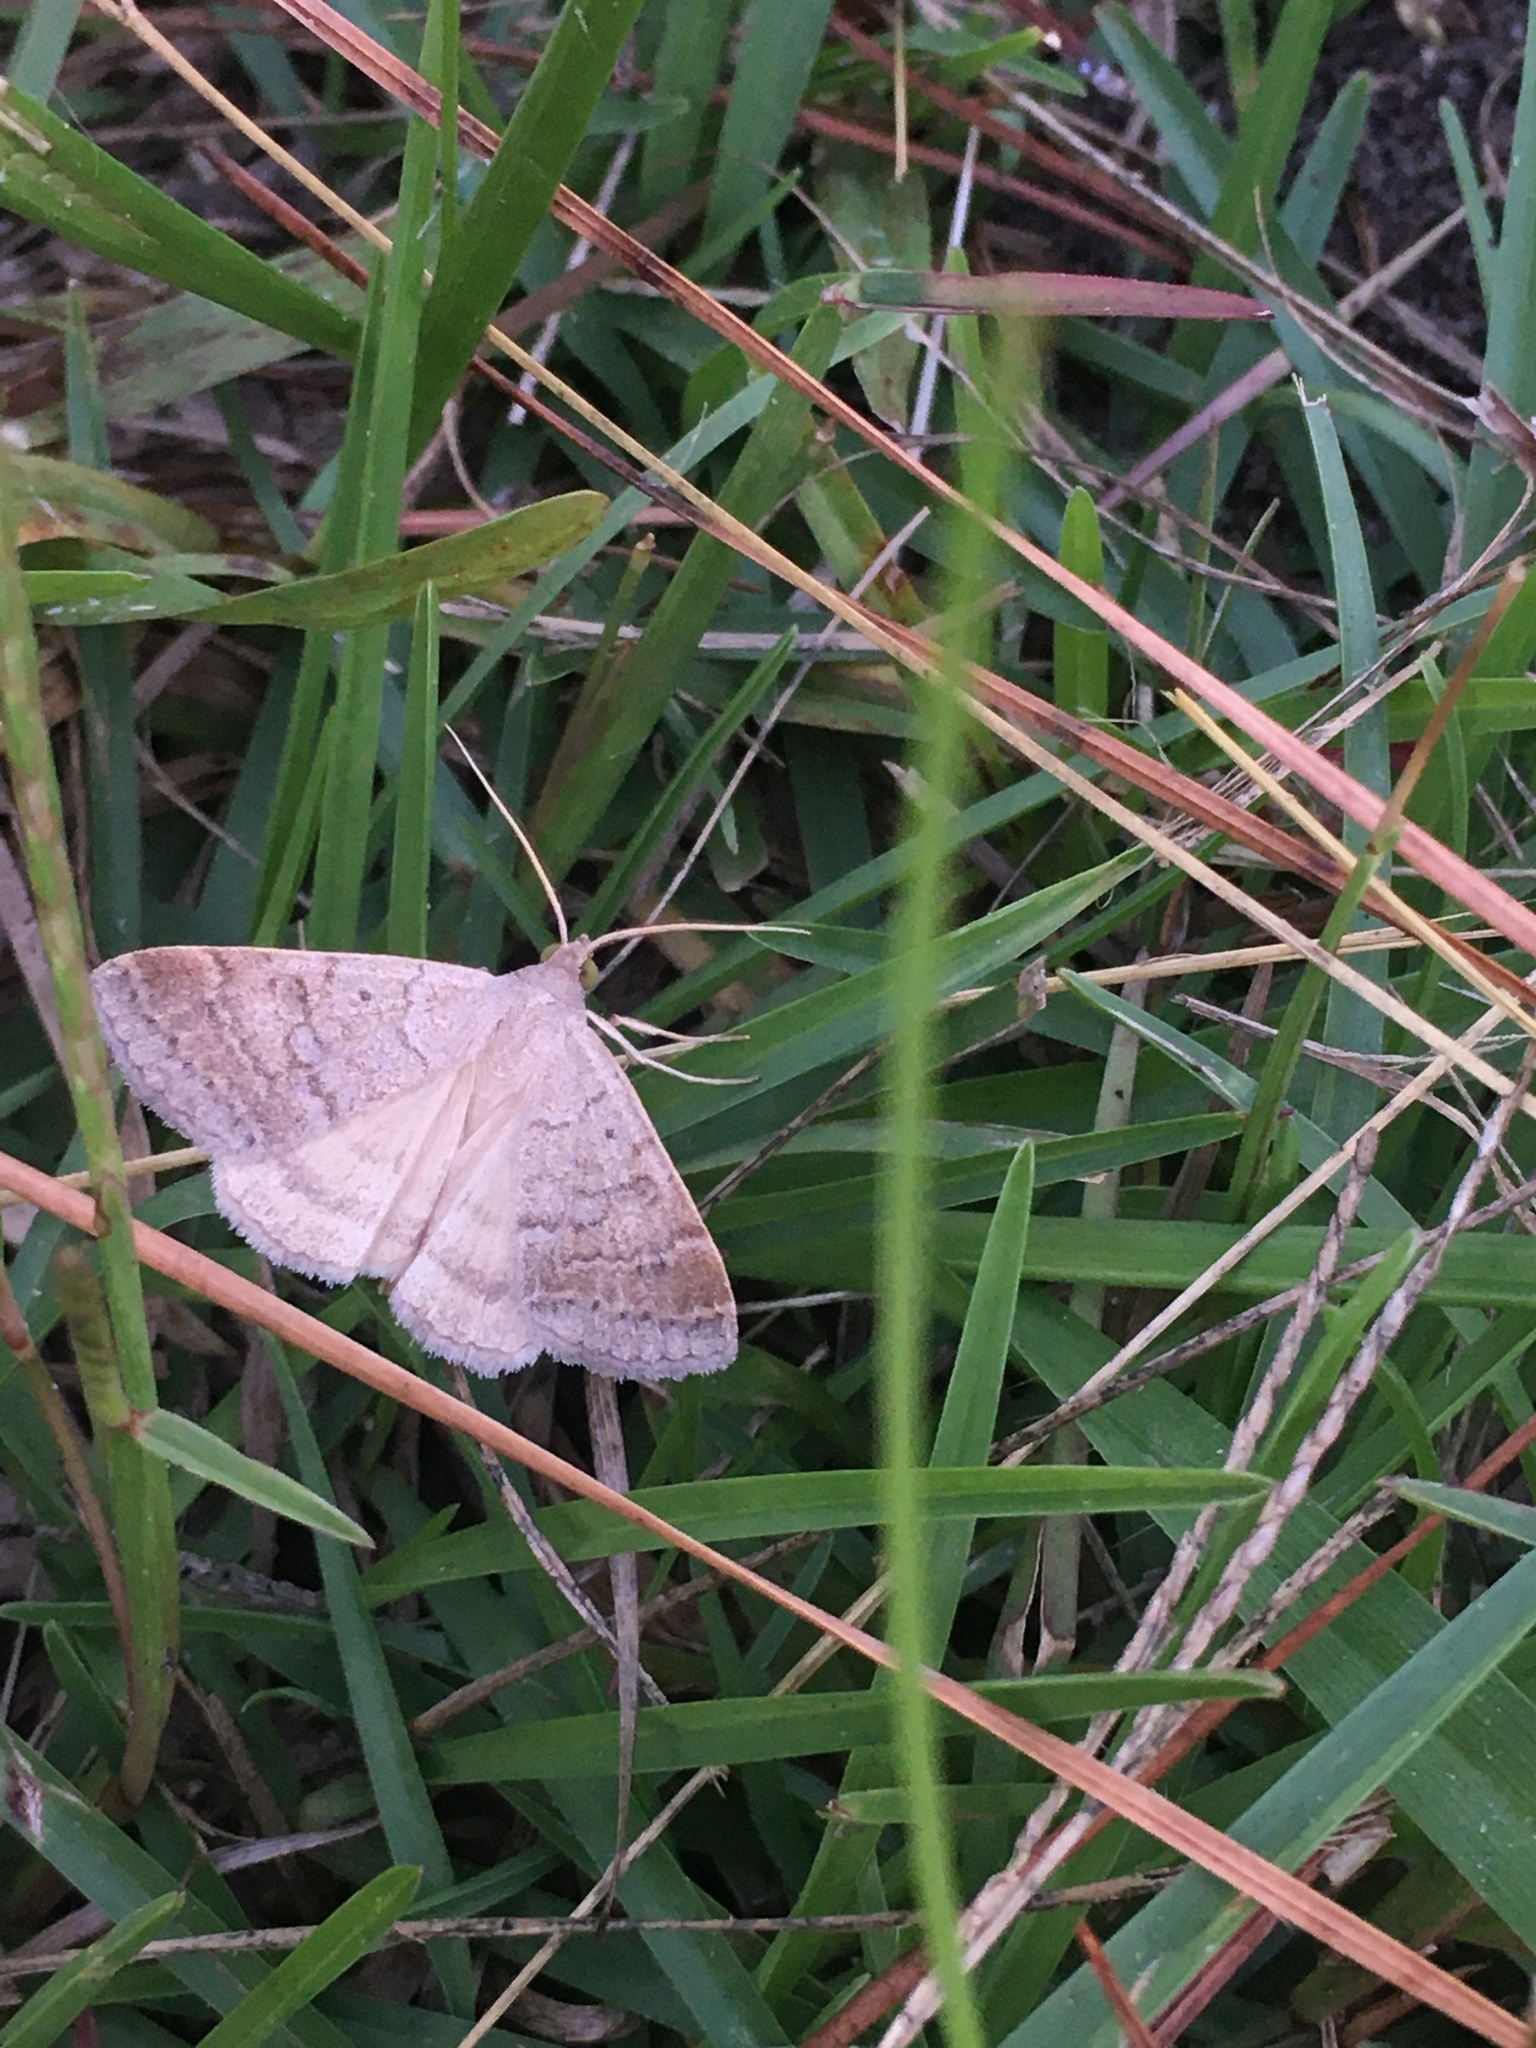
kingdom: Animalia
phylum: Arthropoda
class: Insecta
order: Lepidoptera
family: Erebidae
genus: Caenurgia
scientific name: Caenurgia chloropha
